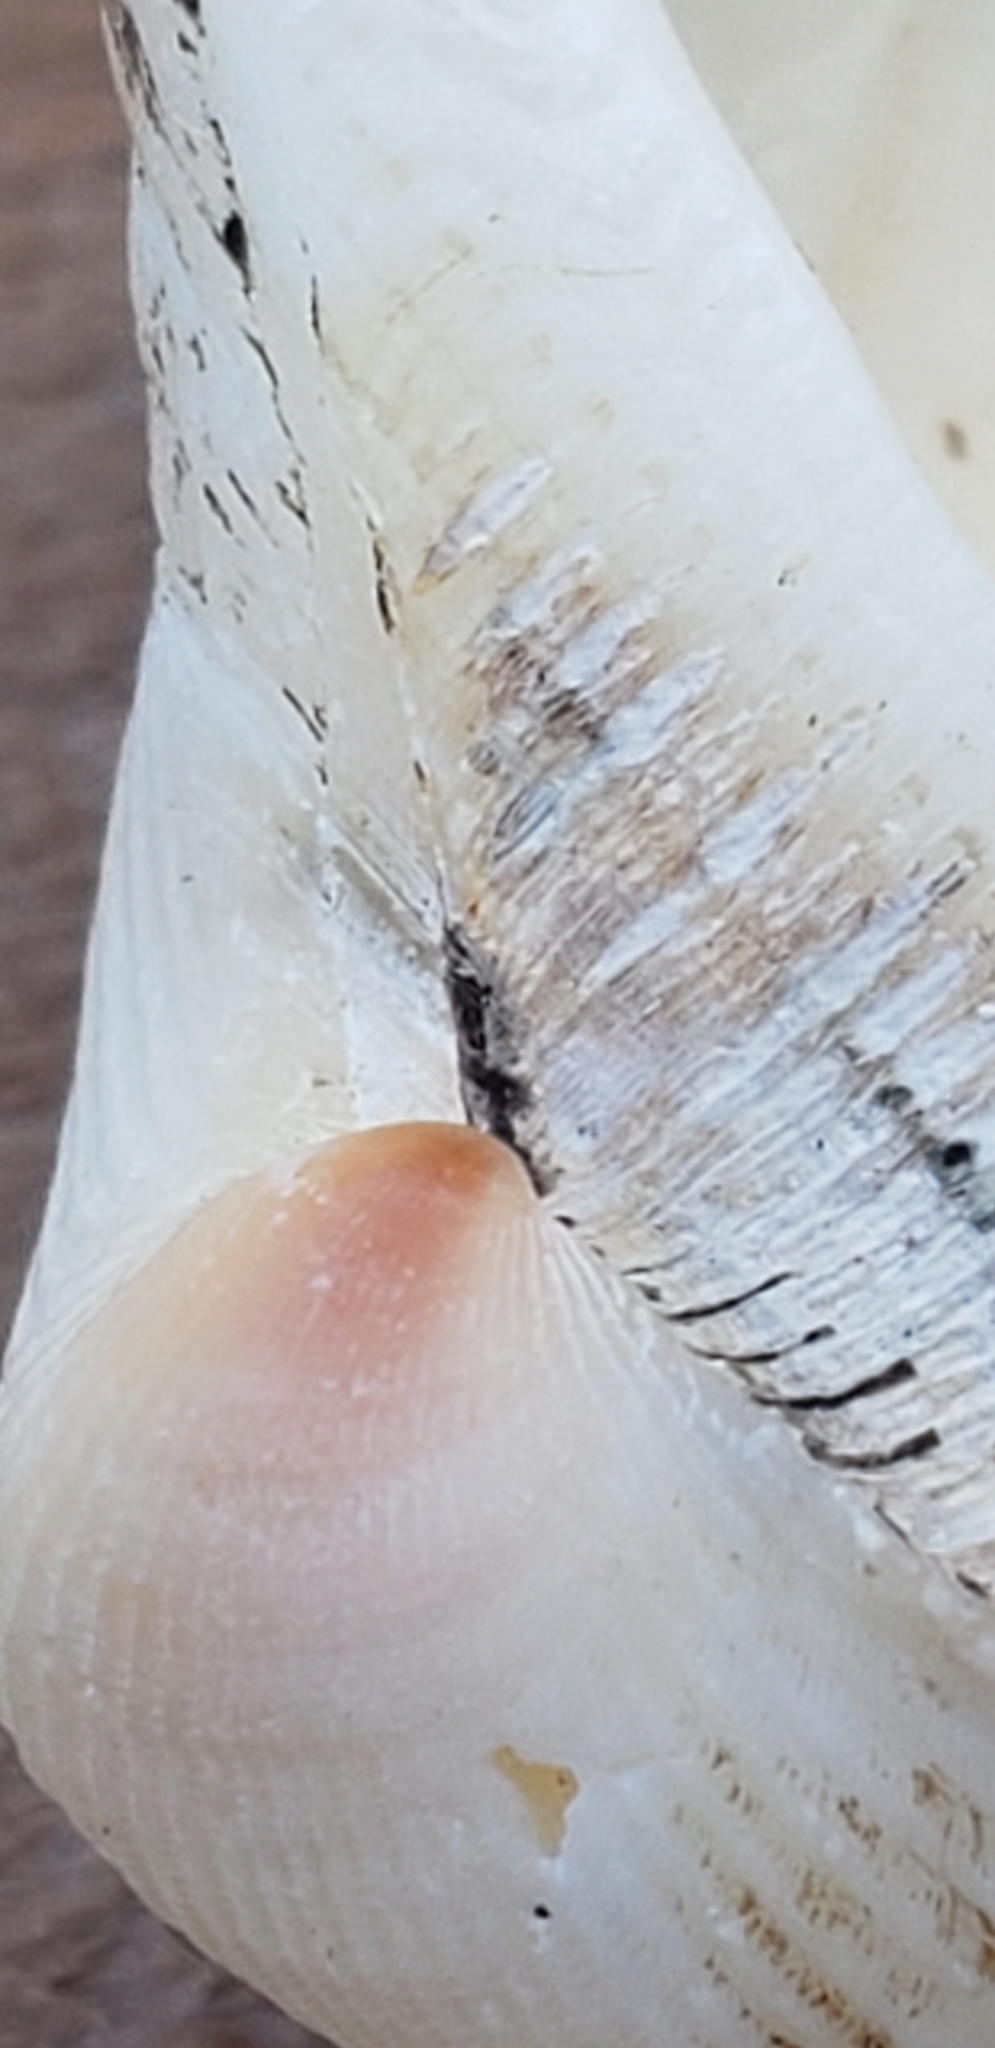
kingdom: Animalia
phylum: Mollusca
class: Bivalvia
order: Arcida
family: Noetiidae
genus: Noetia
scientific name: Noetia ponderosa
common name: Ponderous ark
